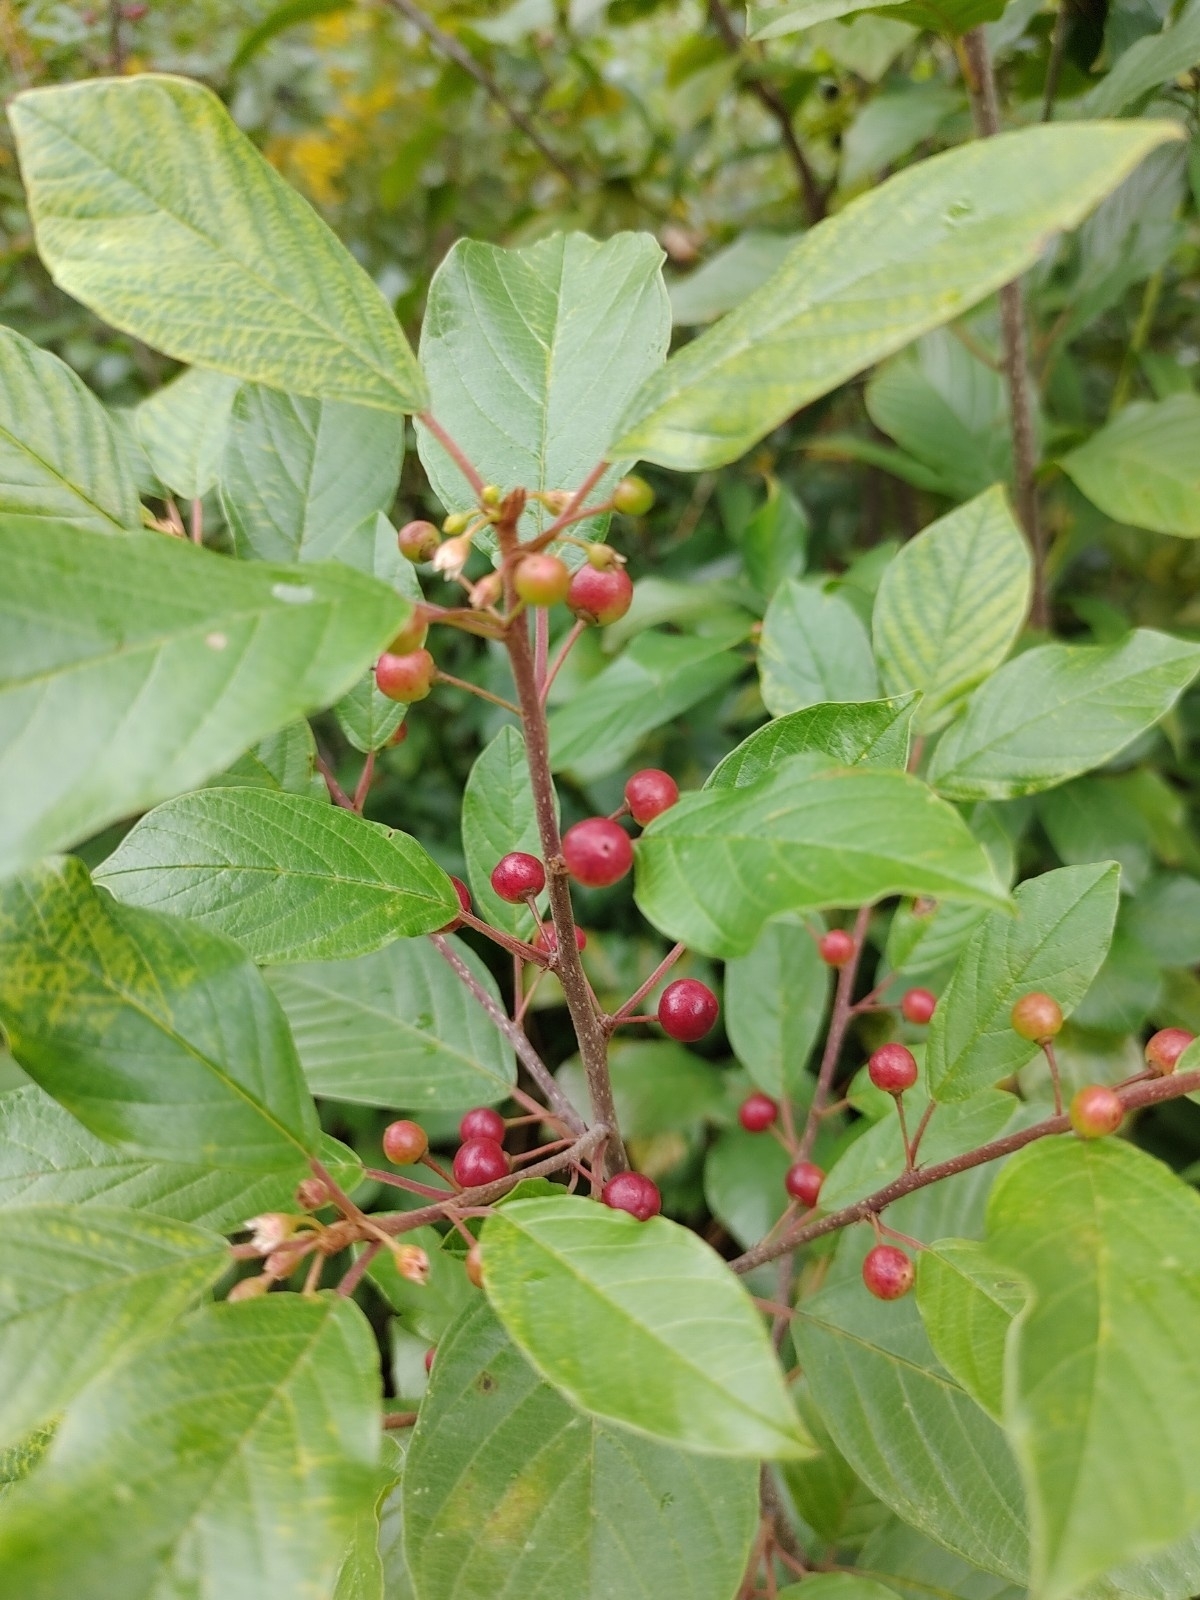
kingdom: Plantae
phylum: Tracheophyta
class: Magnoliopsida
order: Rosales
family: Rhamnaceae
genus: Frangula
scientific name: Frangula alnus
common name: Alder buckthorn
